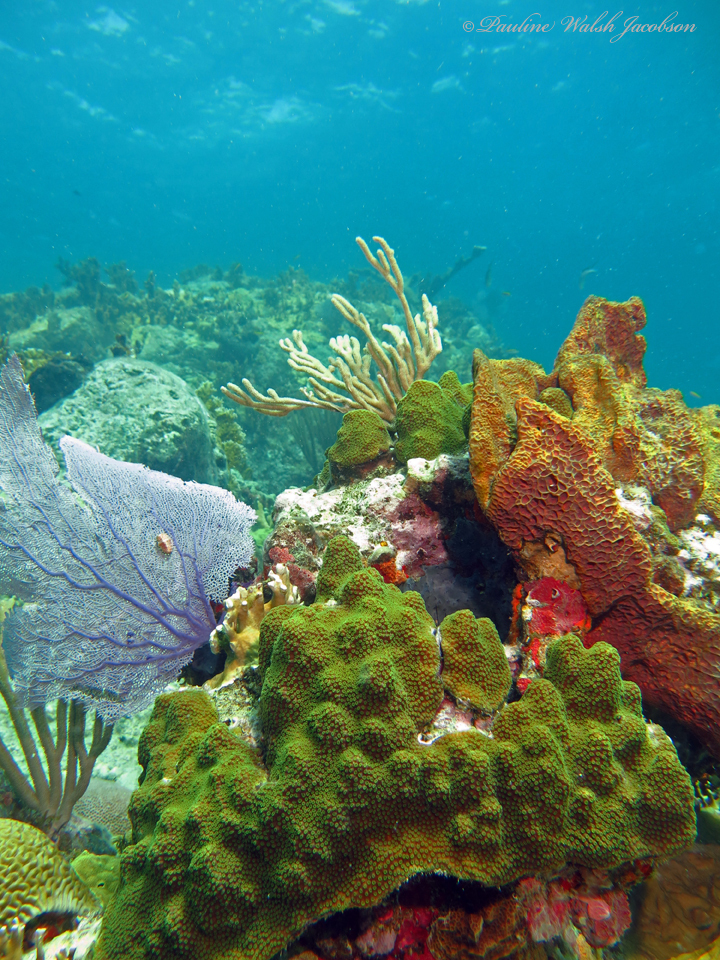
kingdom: Animalia
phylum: Cnidaria
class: Anthozoa
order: Scleractinia
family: Merulinidae
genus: Orbicella
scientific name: Orbicella faveolata
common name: Mountainous star coral
